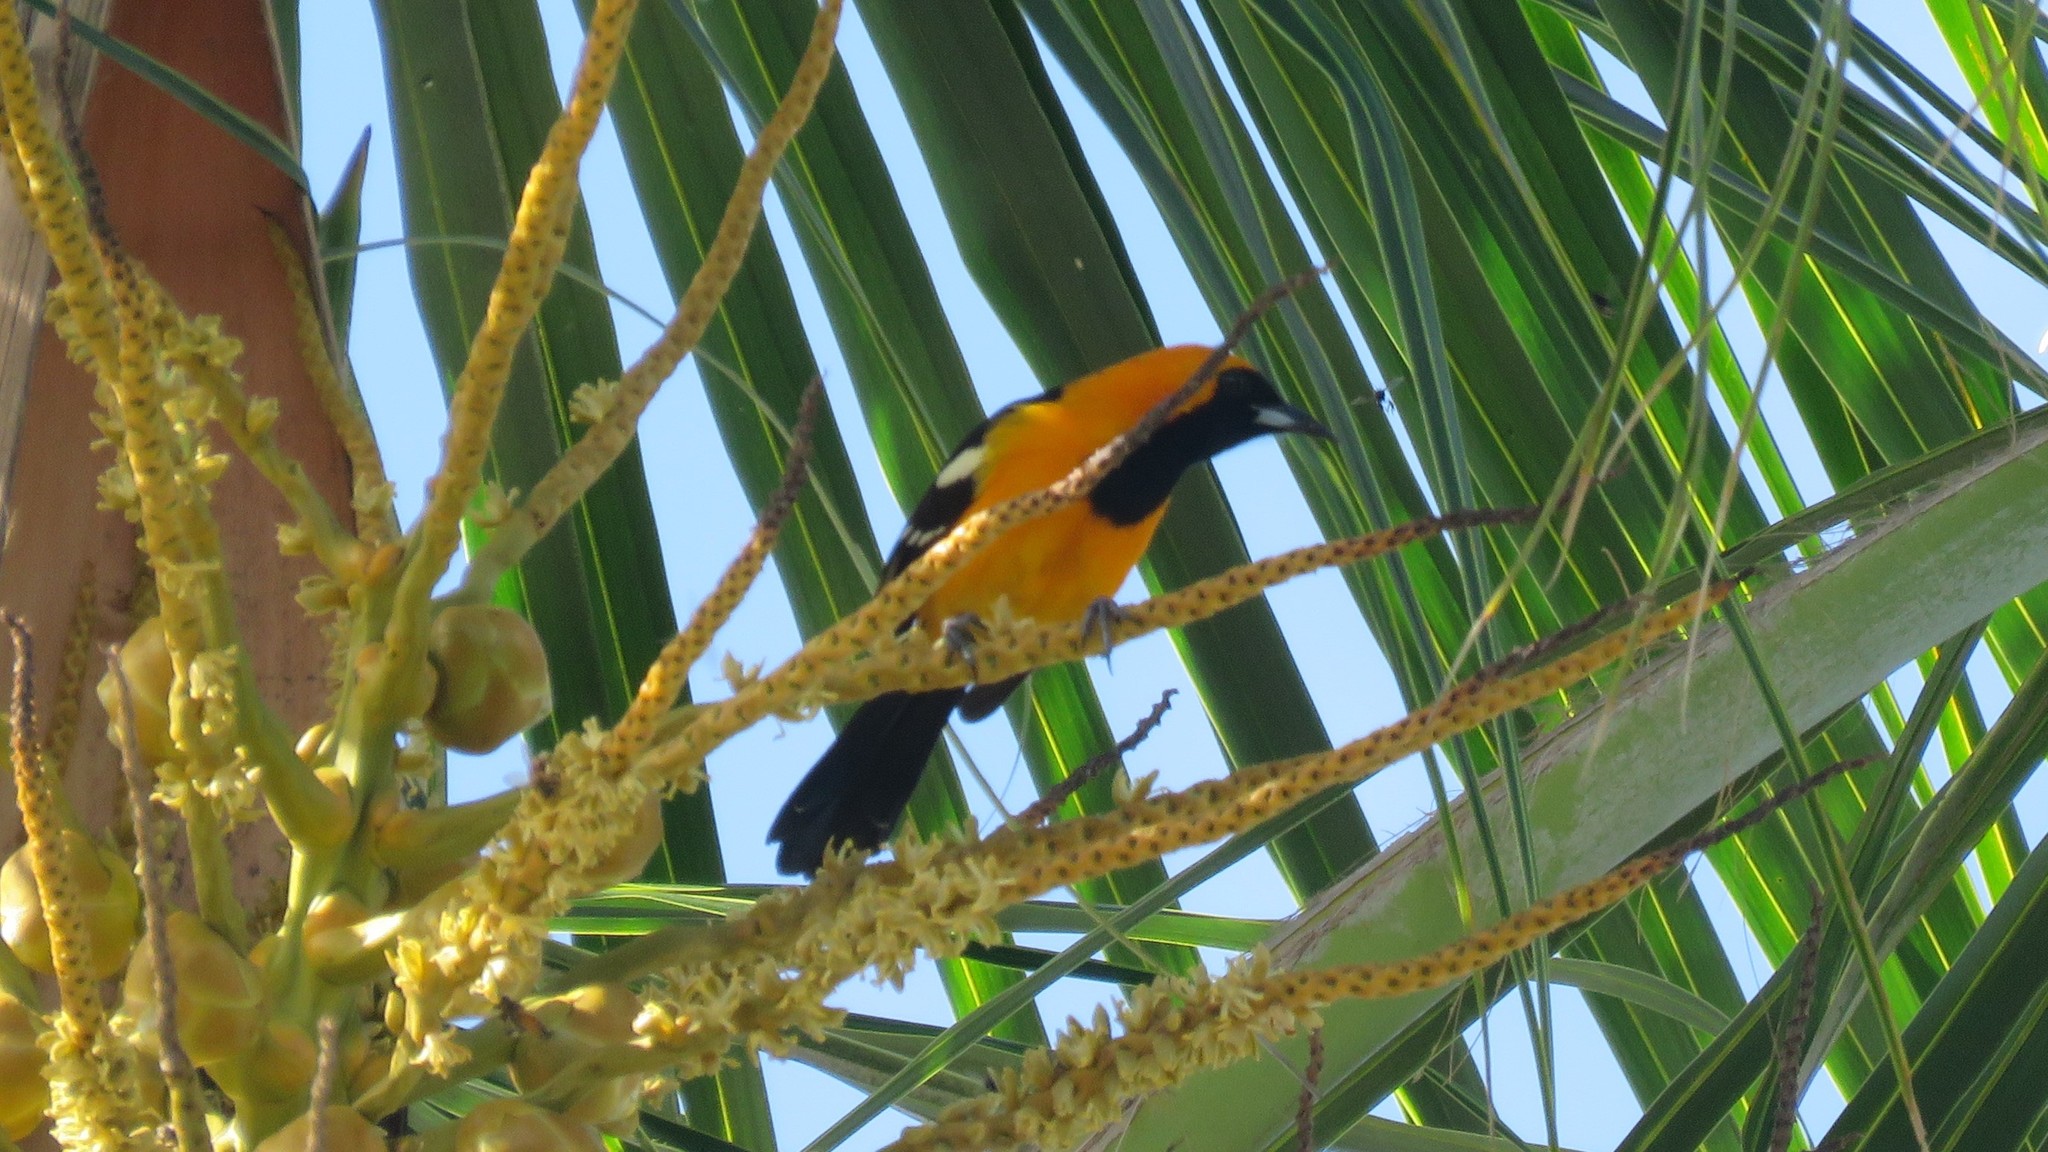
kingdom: Animalia
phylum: Chordata
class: Aves
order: Passeriformes
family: Icteridae
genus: Icterus
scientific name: Icterus cucullatus
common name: Hooded oriole
